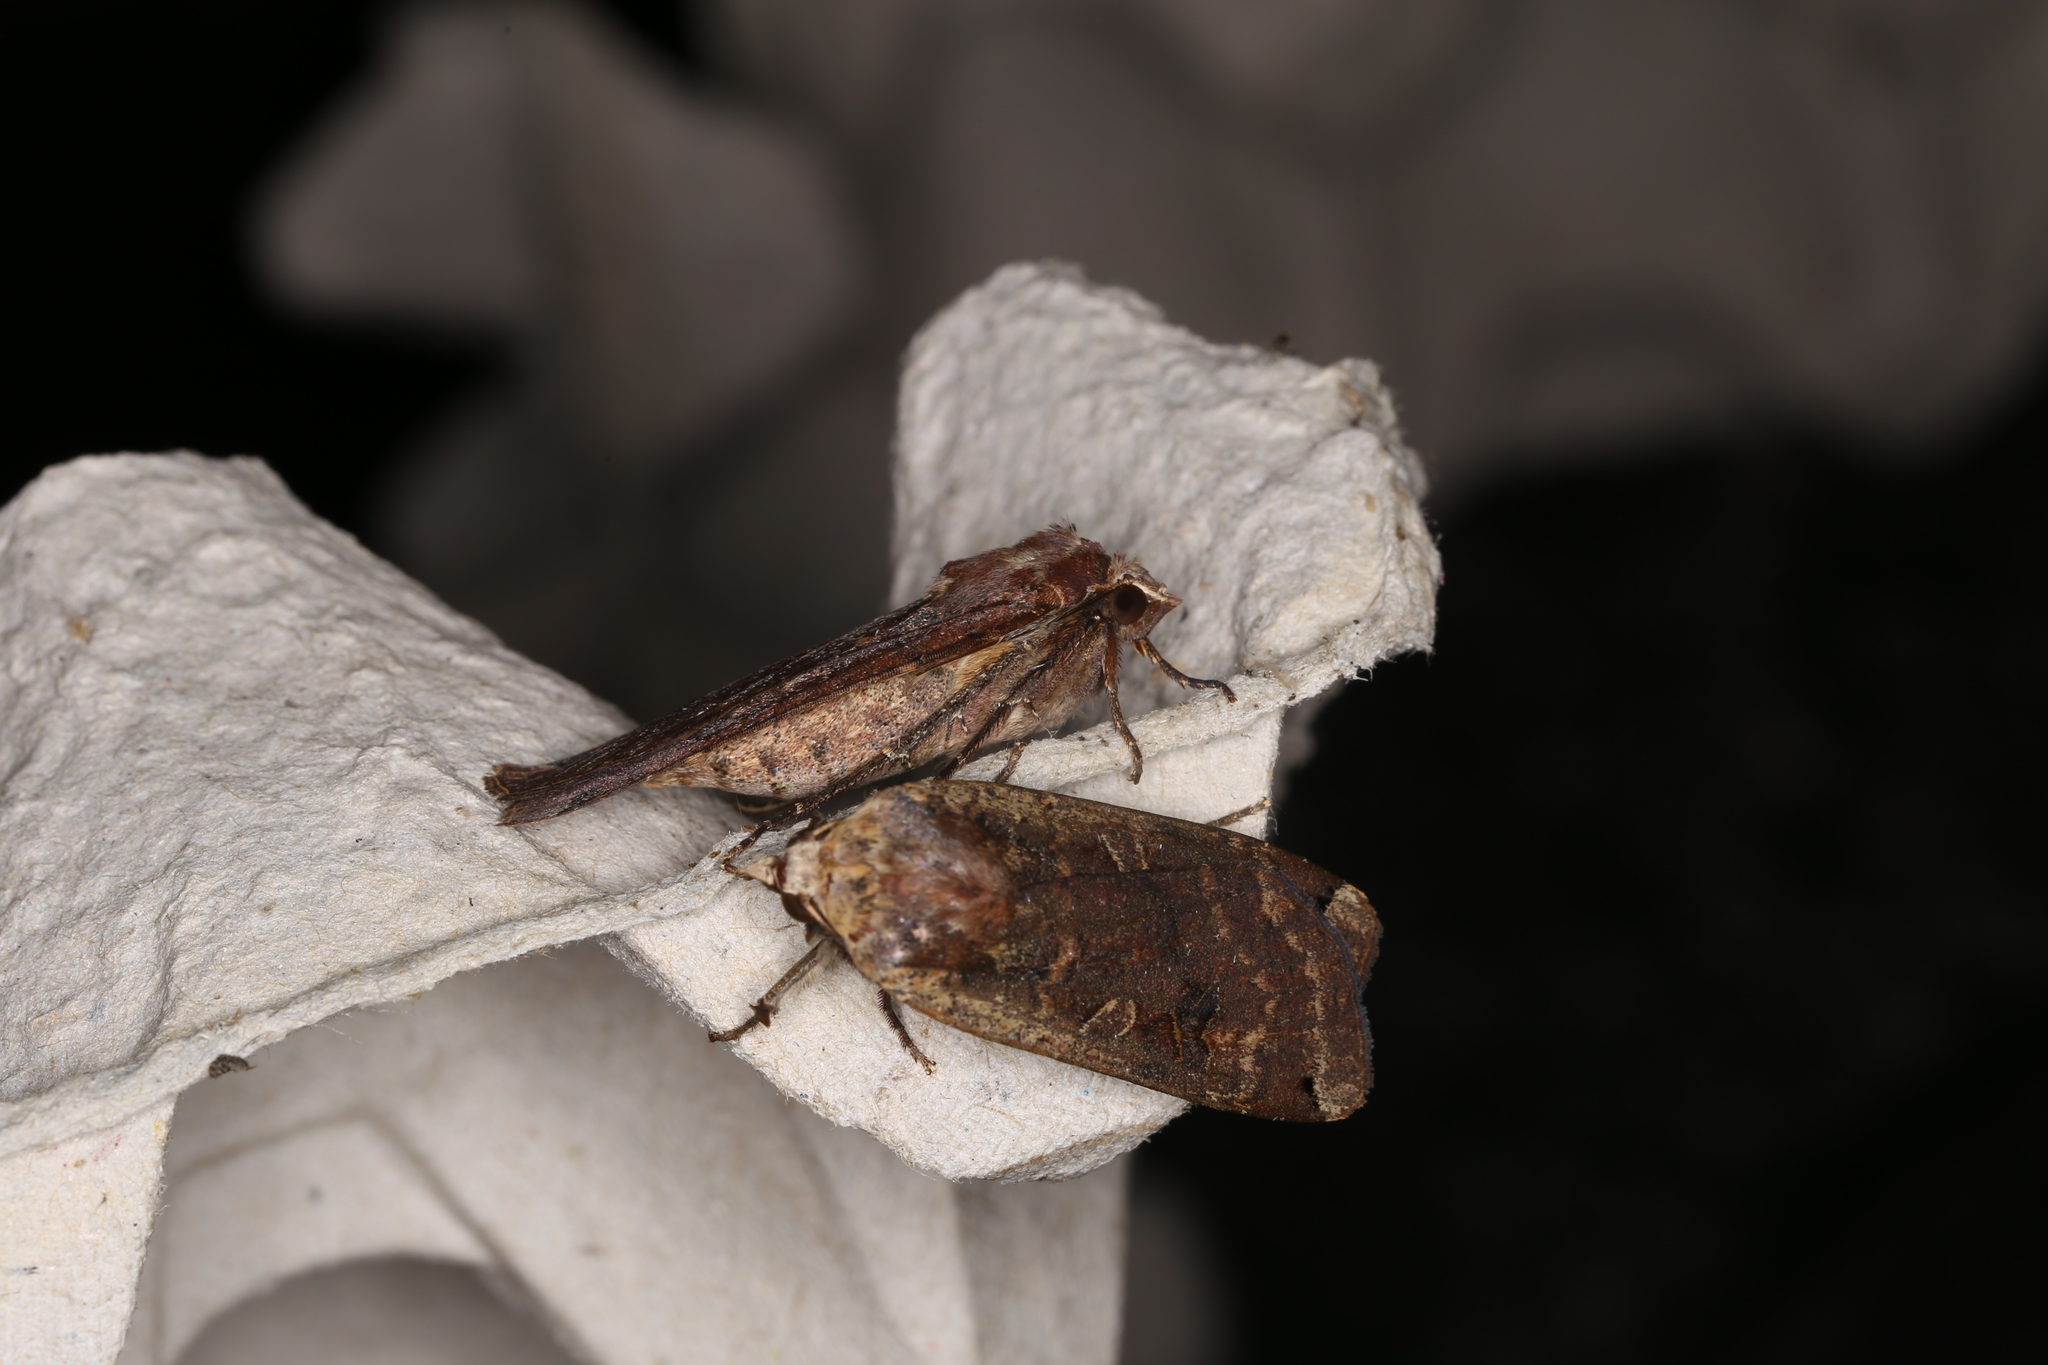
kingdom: Animalia
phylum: Arthropoda
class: Insecta
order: Lepidoptera
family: Noctuidae
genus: Noctua
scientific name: Noctua pronuba
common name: Large yellow underwing
